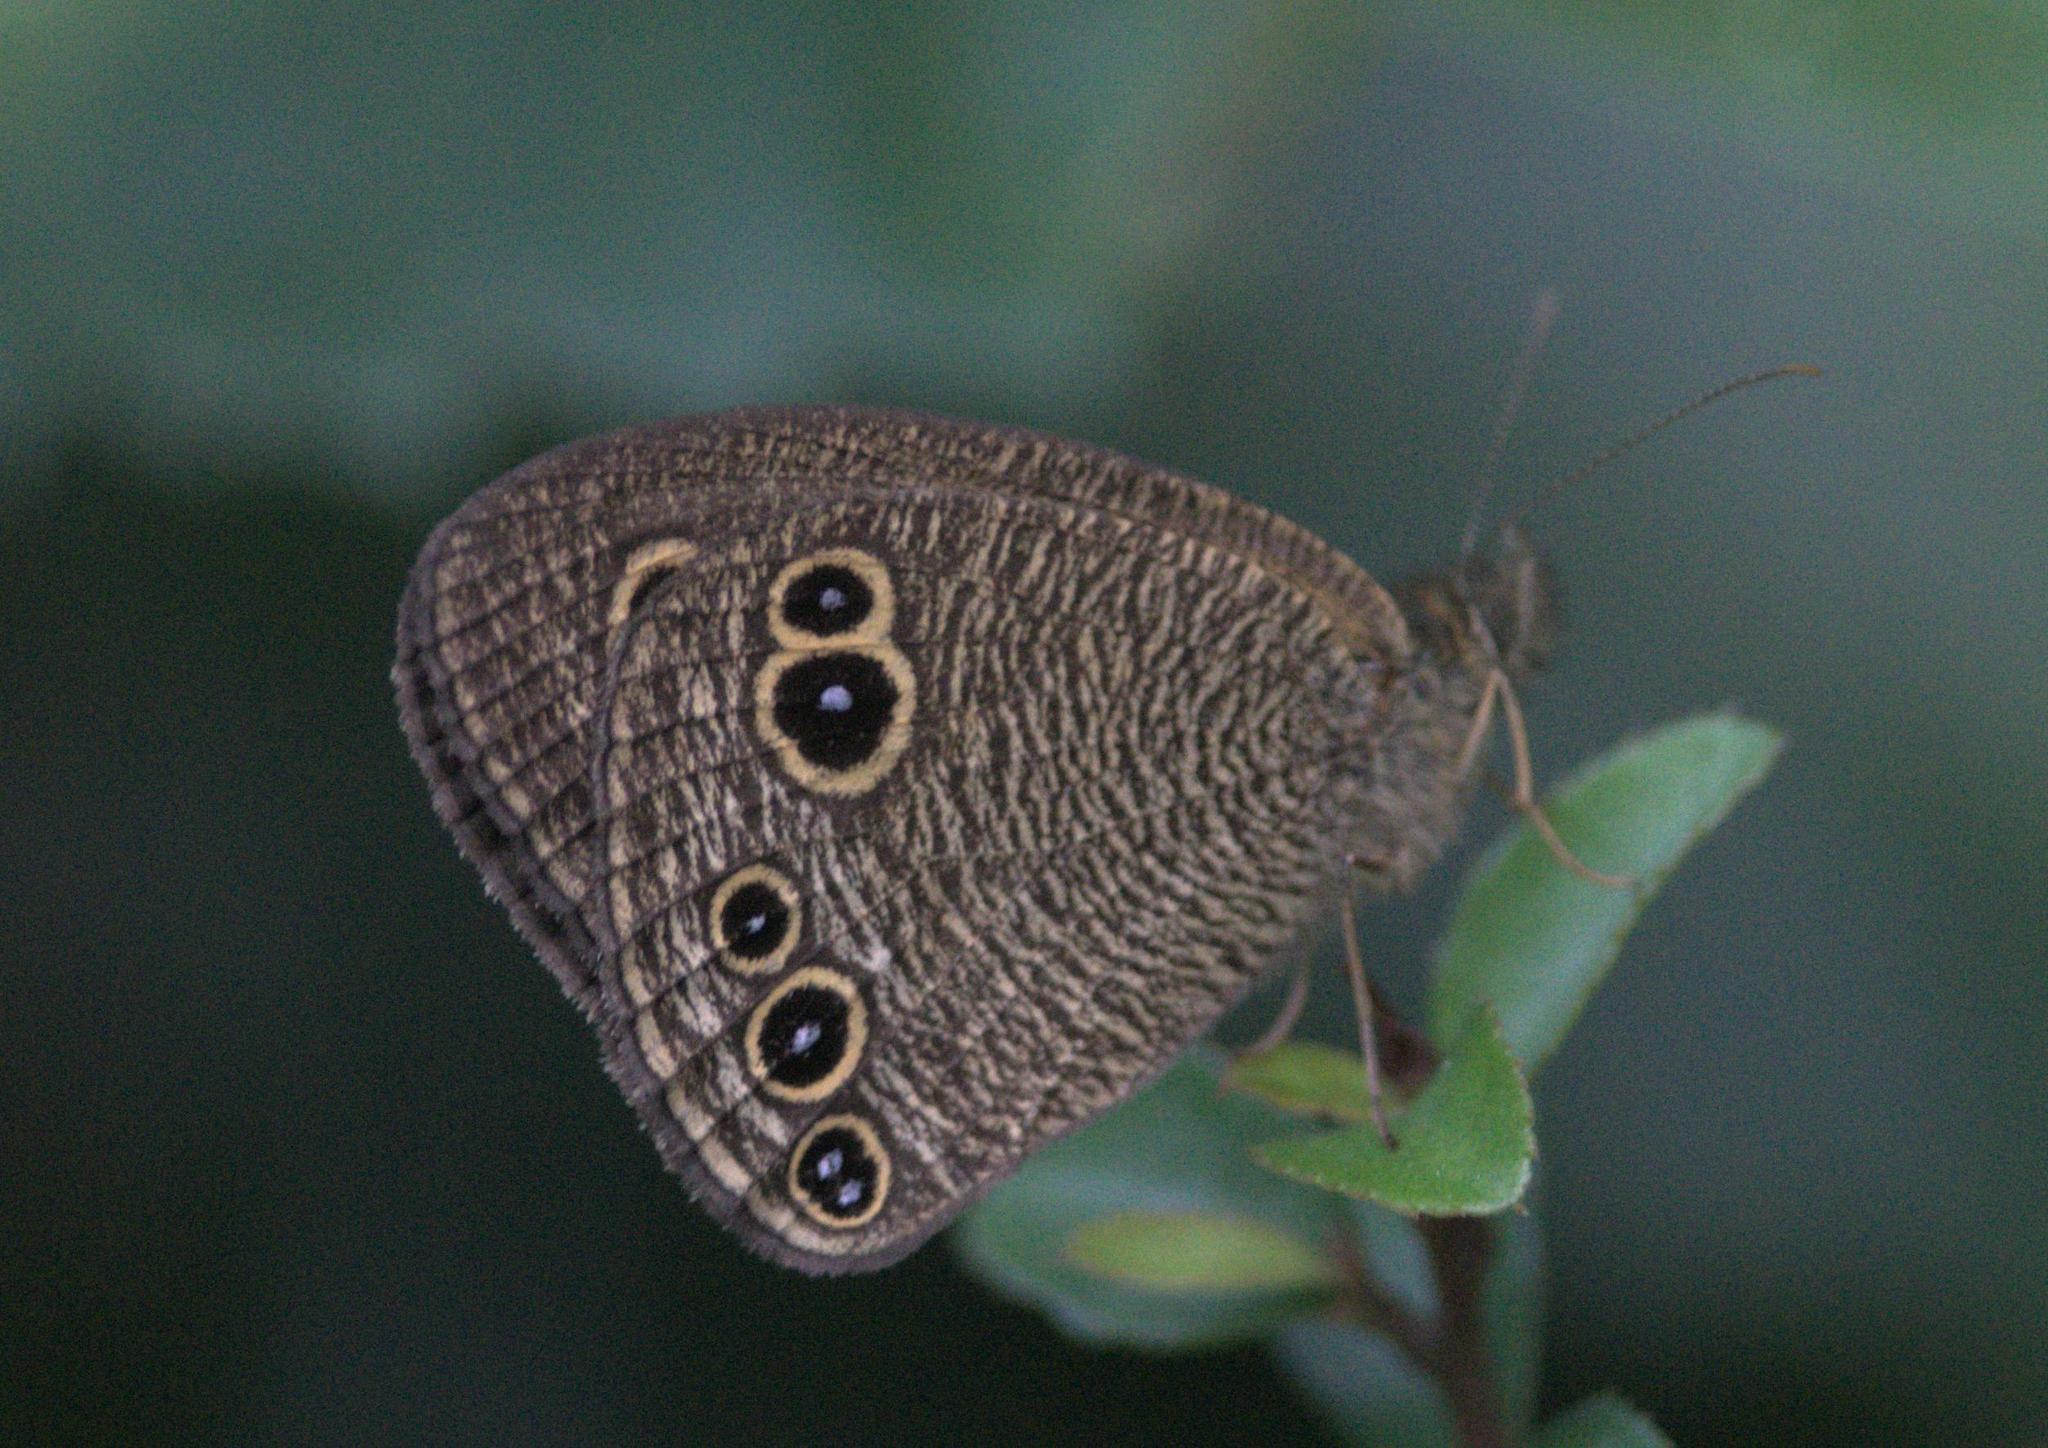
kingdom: Animalia
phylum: Arthropoda
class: Insecta
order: Lepidoptera
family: Nymphalidae
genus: Ypthima
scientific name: Ypthima nikaea
